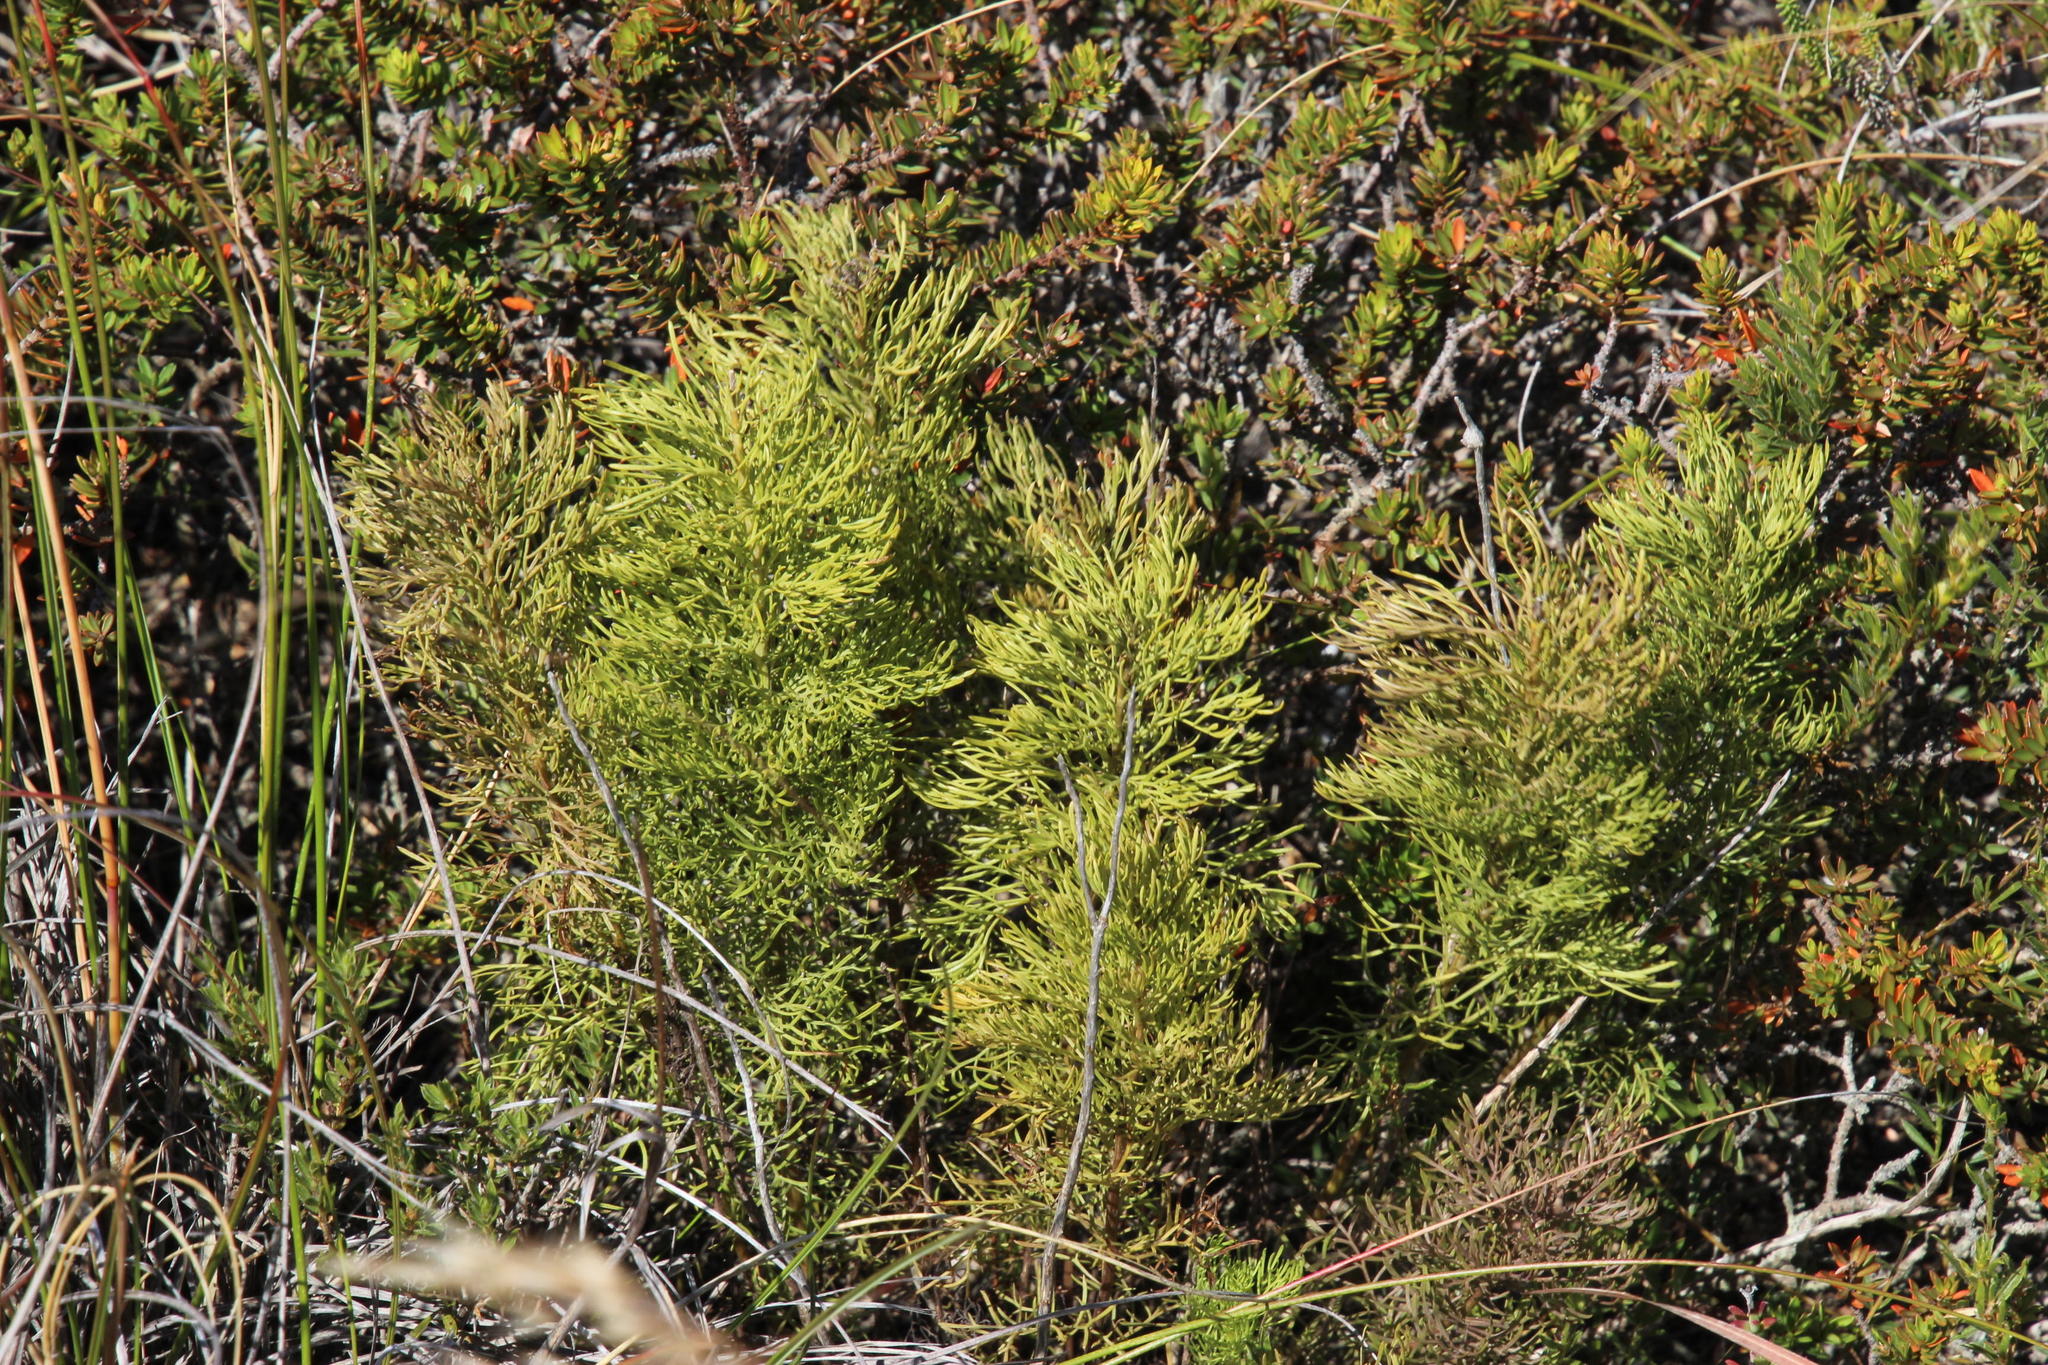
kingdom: Plantae
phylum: Tracheophyta
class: Magnoliopsida
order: Apiales
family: Apiaceae
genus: Notobubon
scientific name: Notobubon ferulaceum
